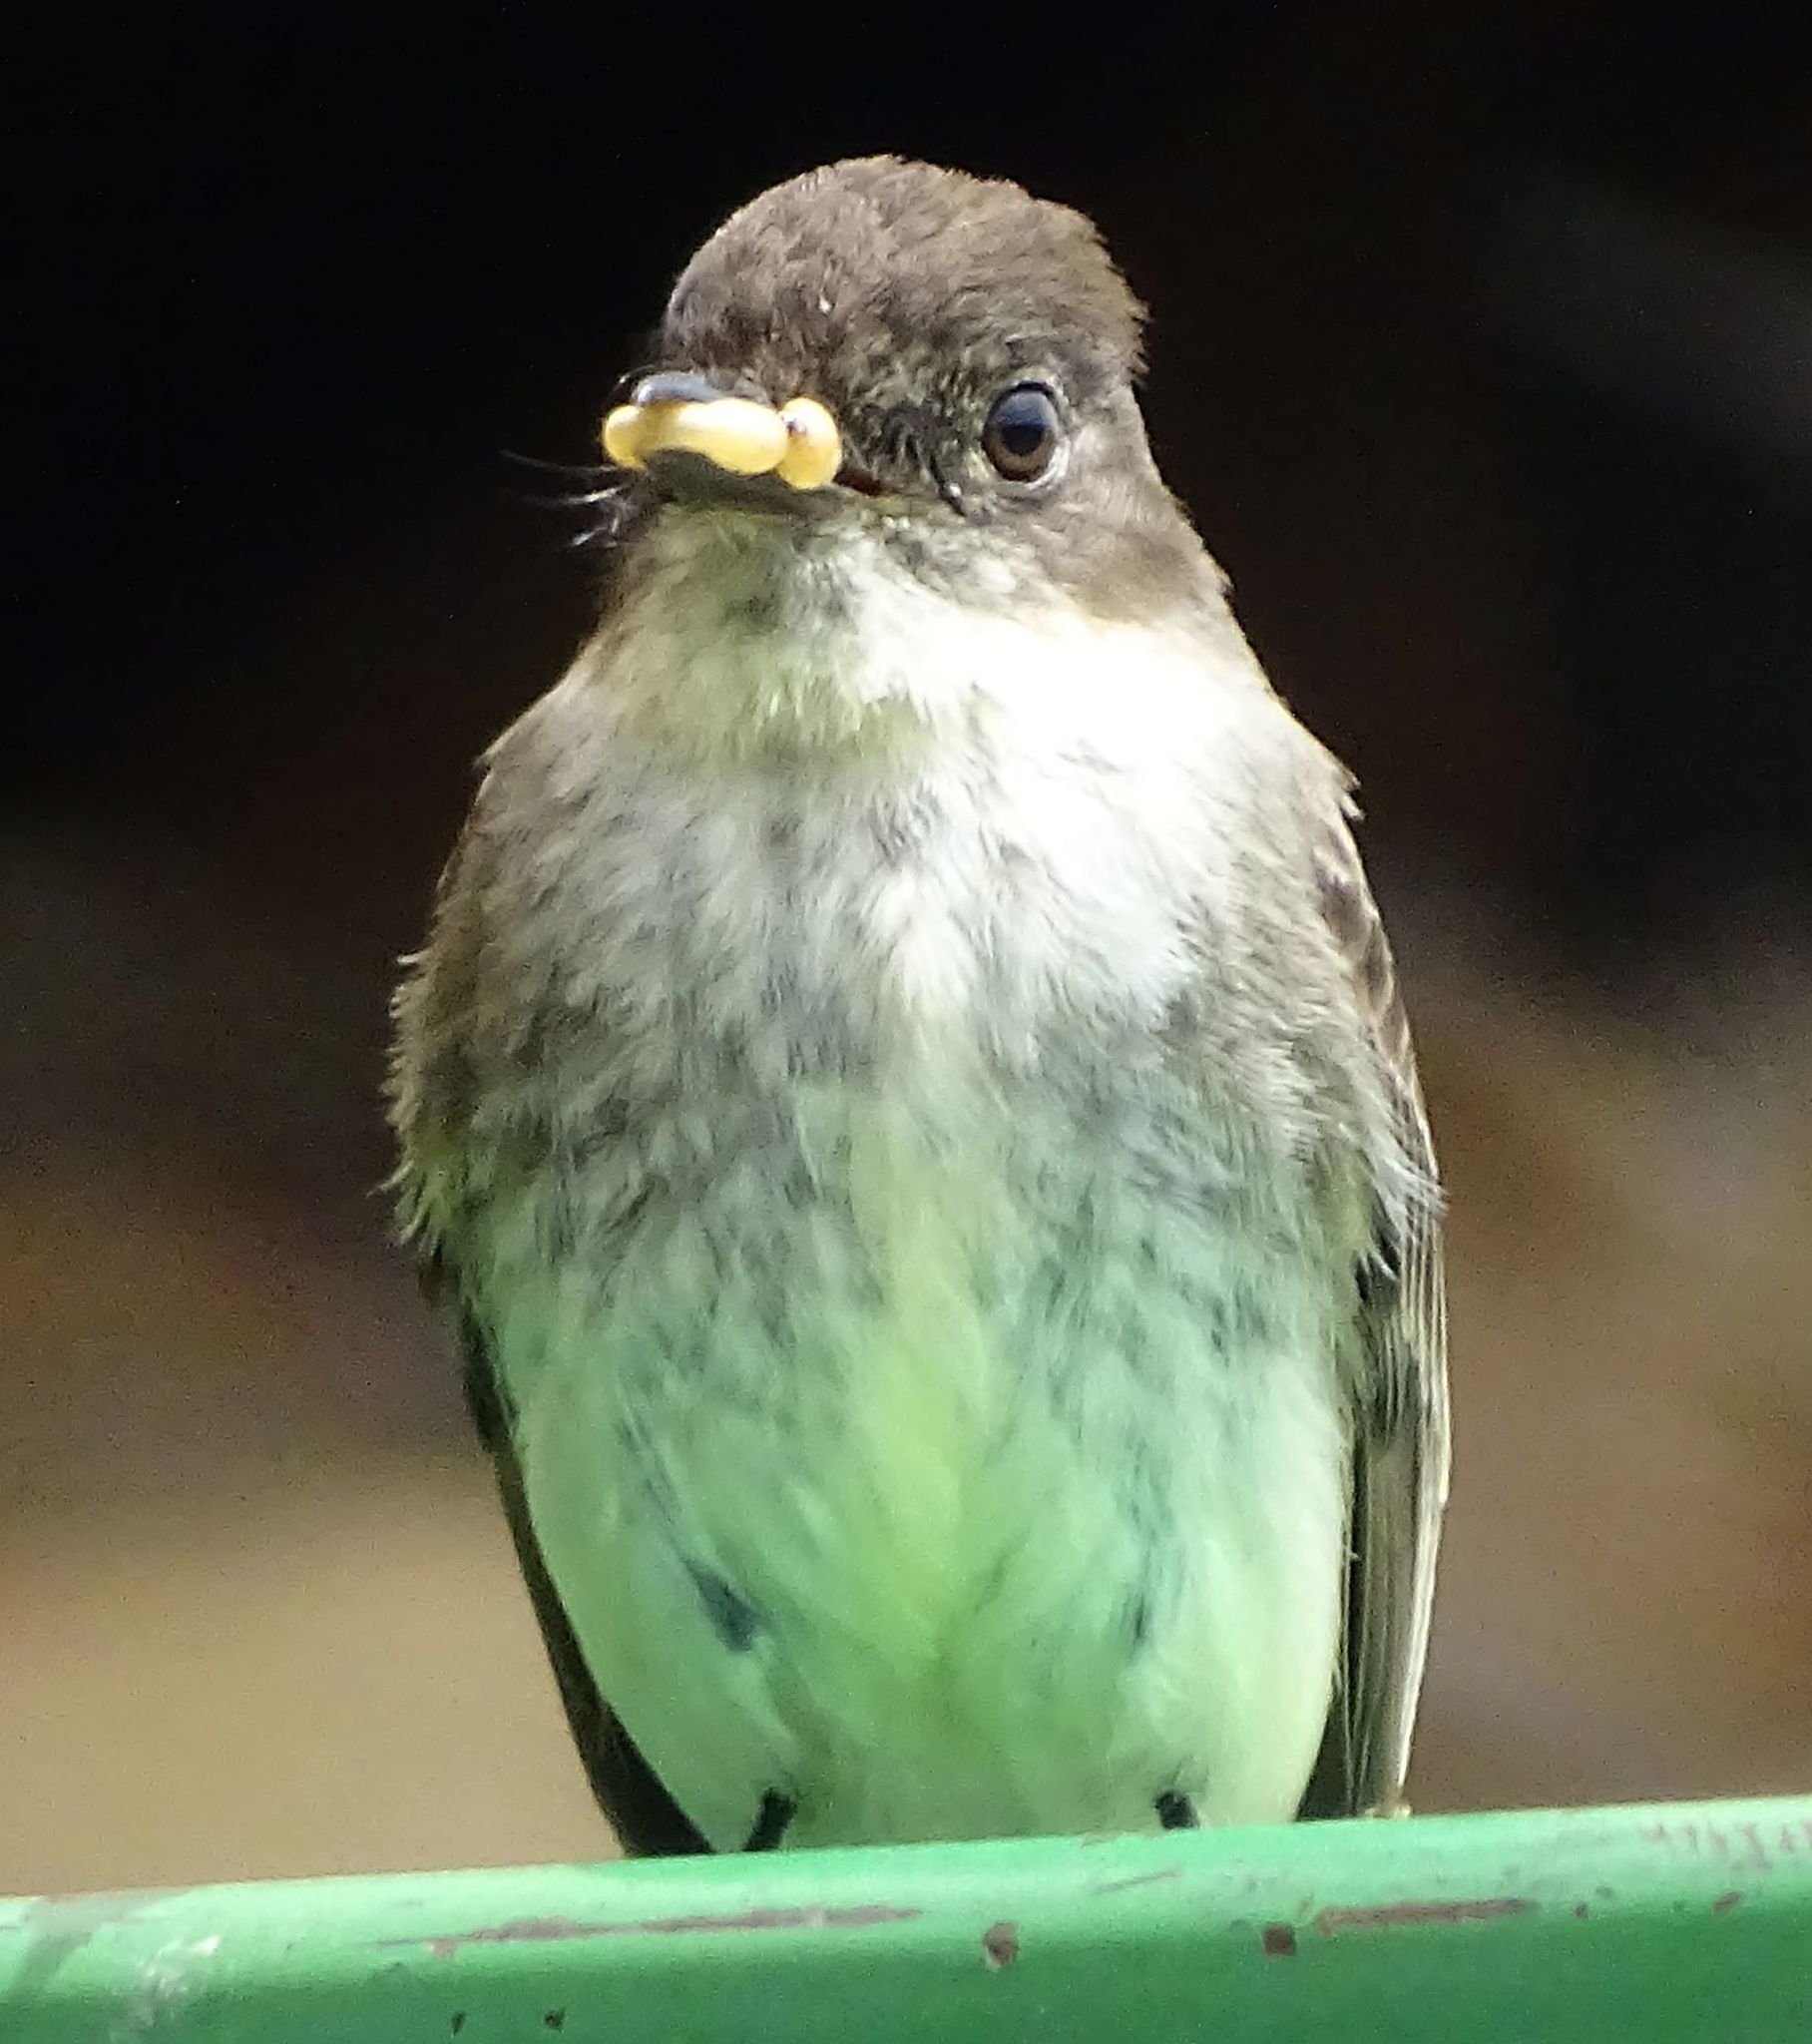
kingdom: Animalia
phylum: Chordata
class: Aves
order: Passeriformes
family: Tyrannidae
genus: Sayornis
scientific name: Sayornis phoebe
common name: Eastern phoebe
